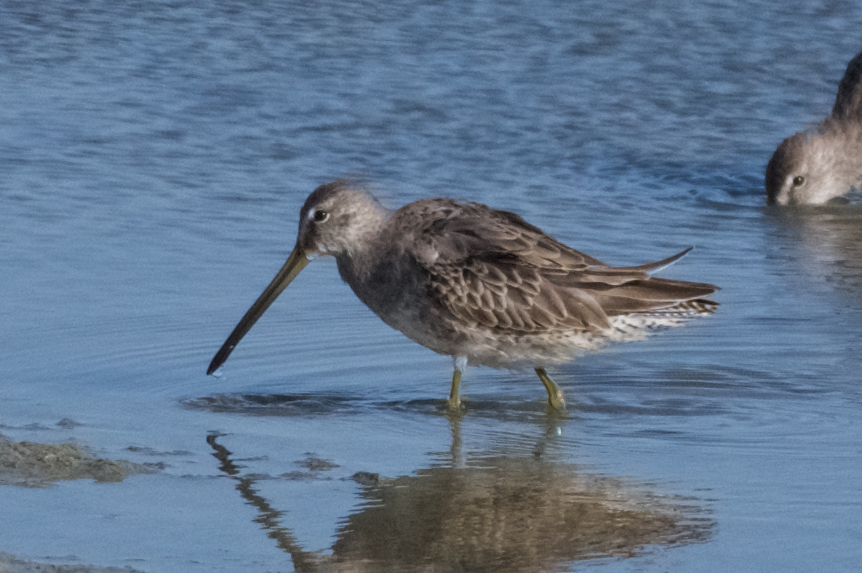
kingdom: Animalia
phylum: Chordata
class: Aves
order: Charadriiformes
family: Scolopacidae
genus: Limnodromus
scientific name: Limnodromus scolopaceus
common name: Long-billed dowitcher
